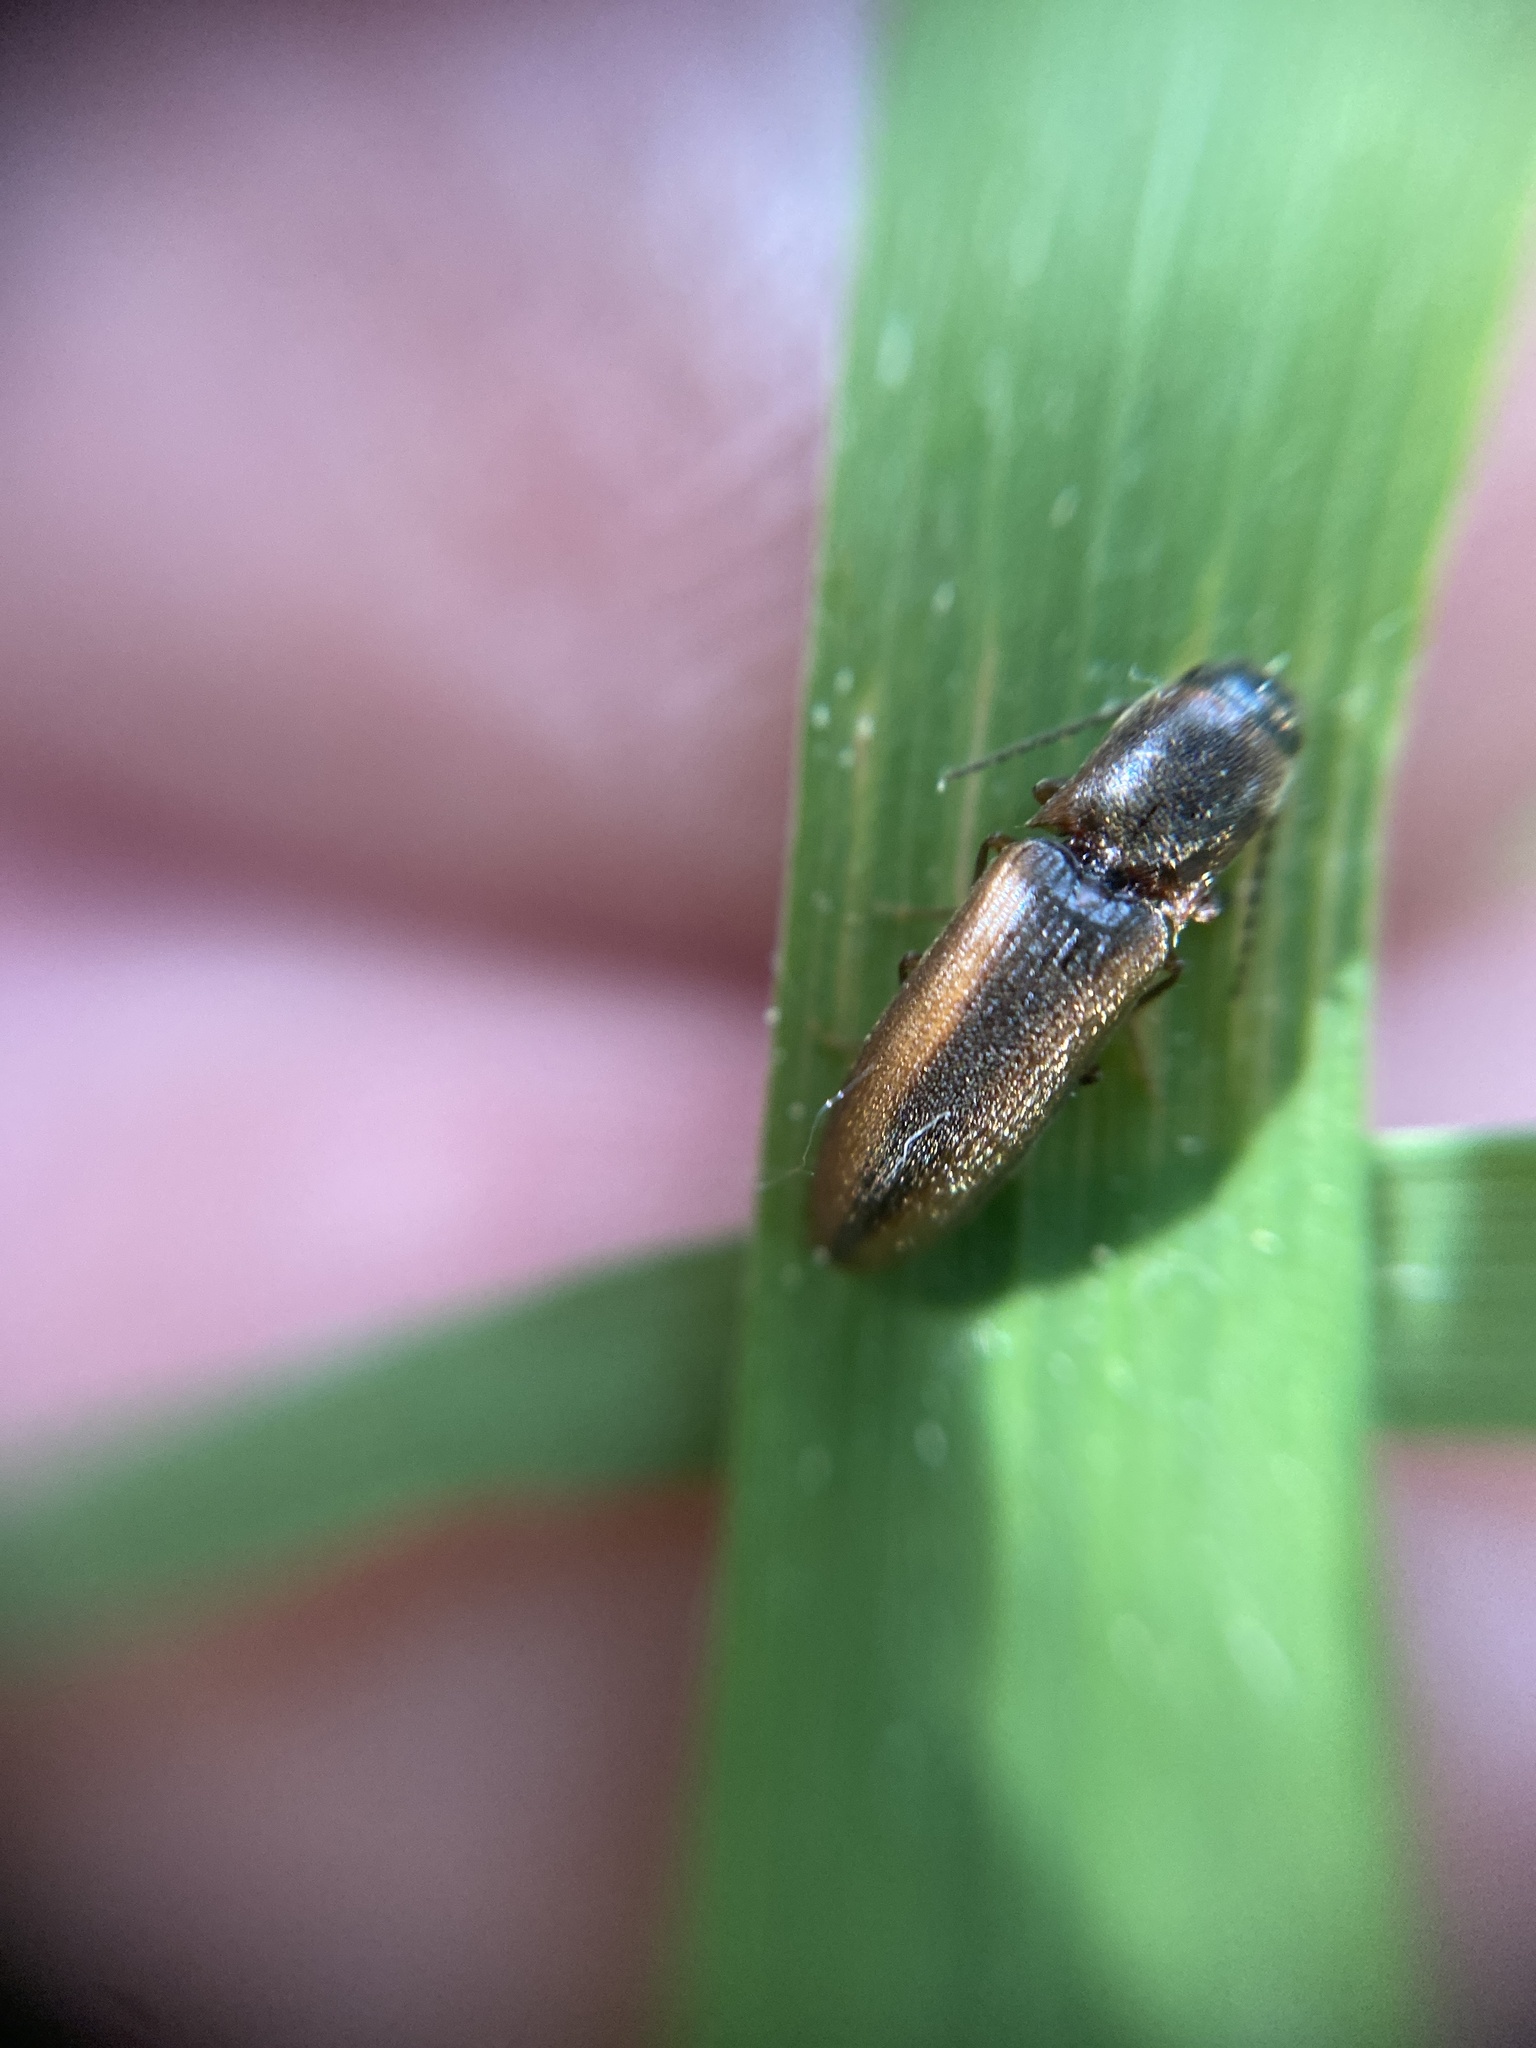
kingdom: Animalia
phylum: Arthropoda
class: Insecta
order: Coleoptera
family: Elateridae
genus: Dalopius
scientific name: Dalopius marginatus
